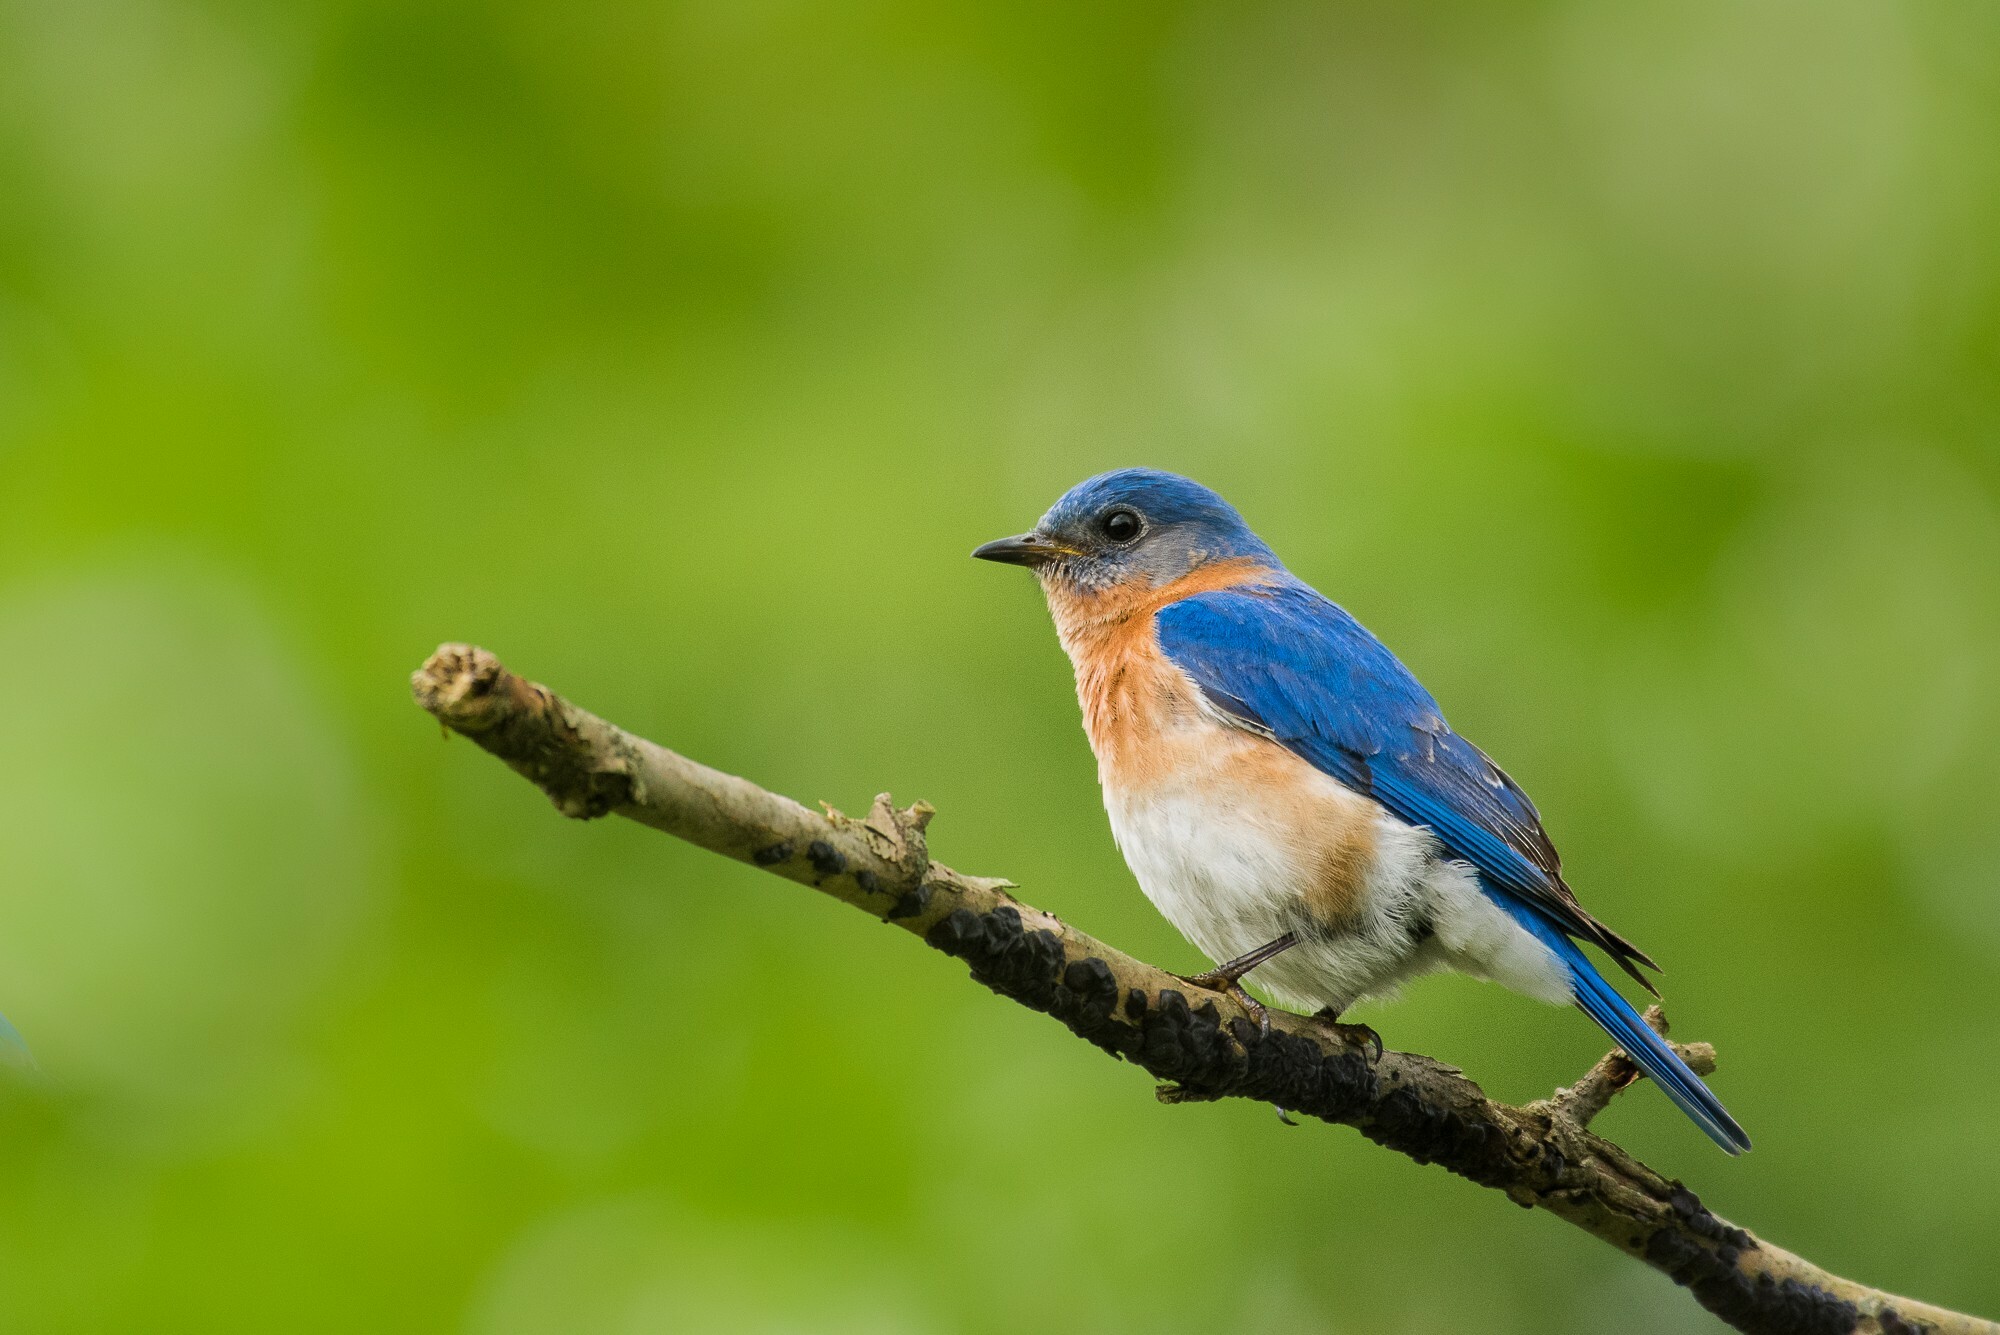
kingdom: Animalia
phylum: Chordata
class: Aves
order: Passeriformes
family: Turdidae
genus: Sialia
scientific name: Sialia sialis
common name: Eastern bluebird
